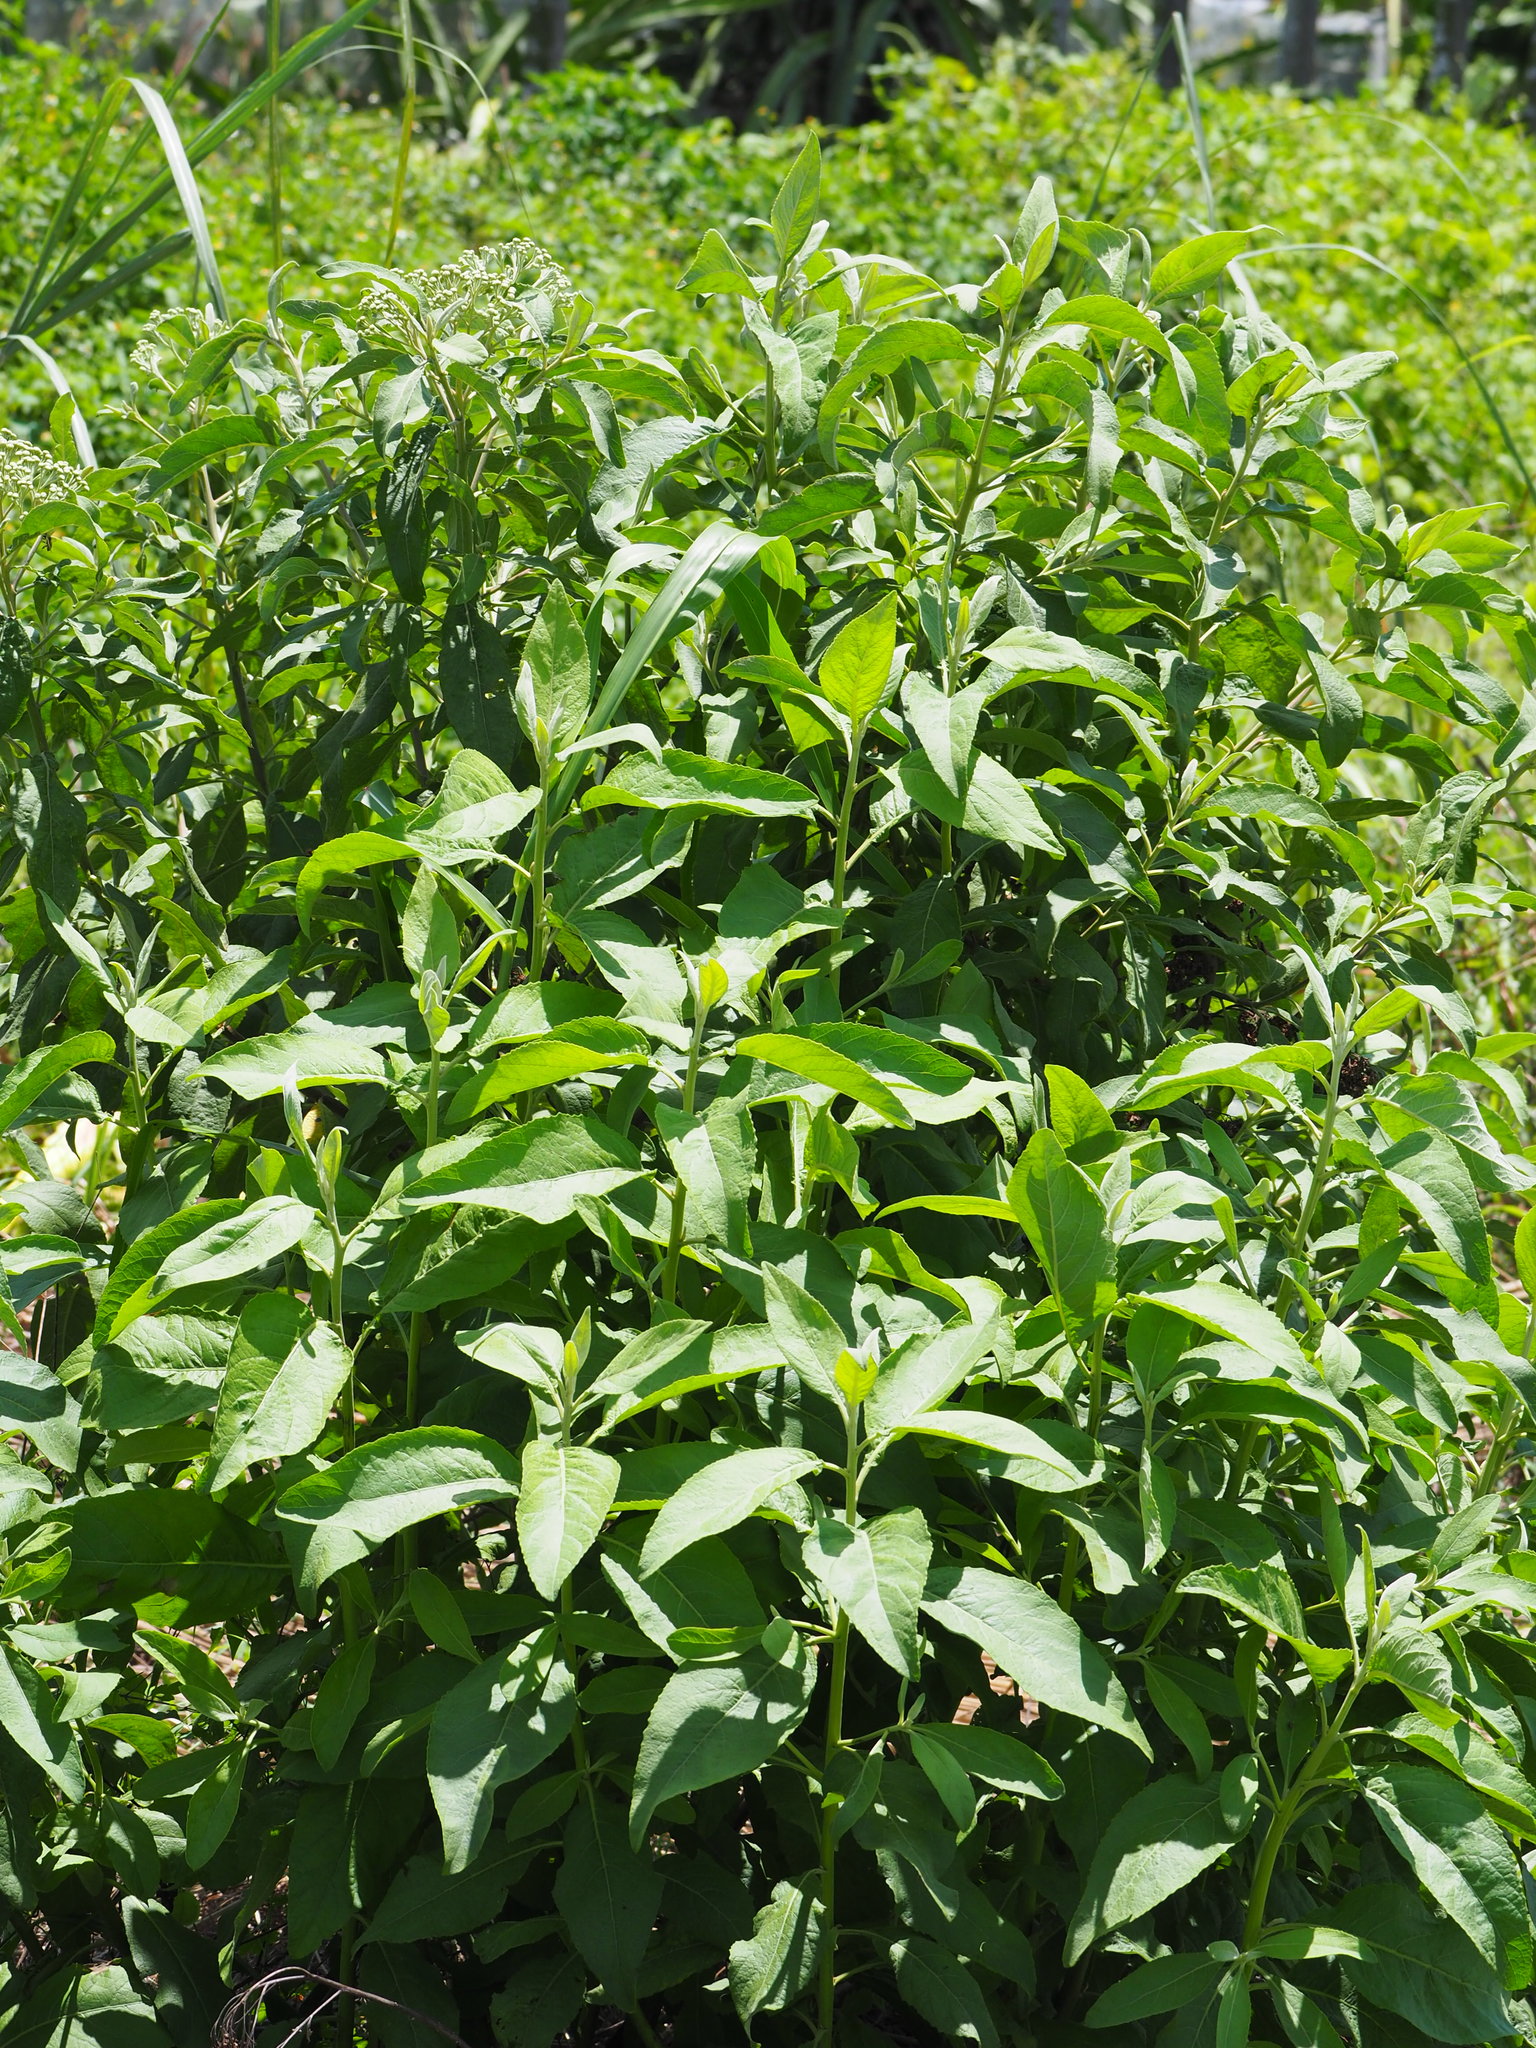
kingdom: Plantae
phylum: Tracheophyta
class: Magnoliopsida
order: Asterales
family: Asteraceae
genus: Pluchea
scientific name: Pluchea carolinensis
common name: Marsh fleabane
